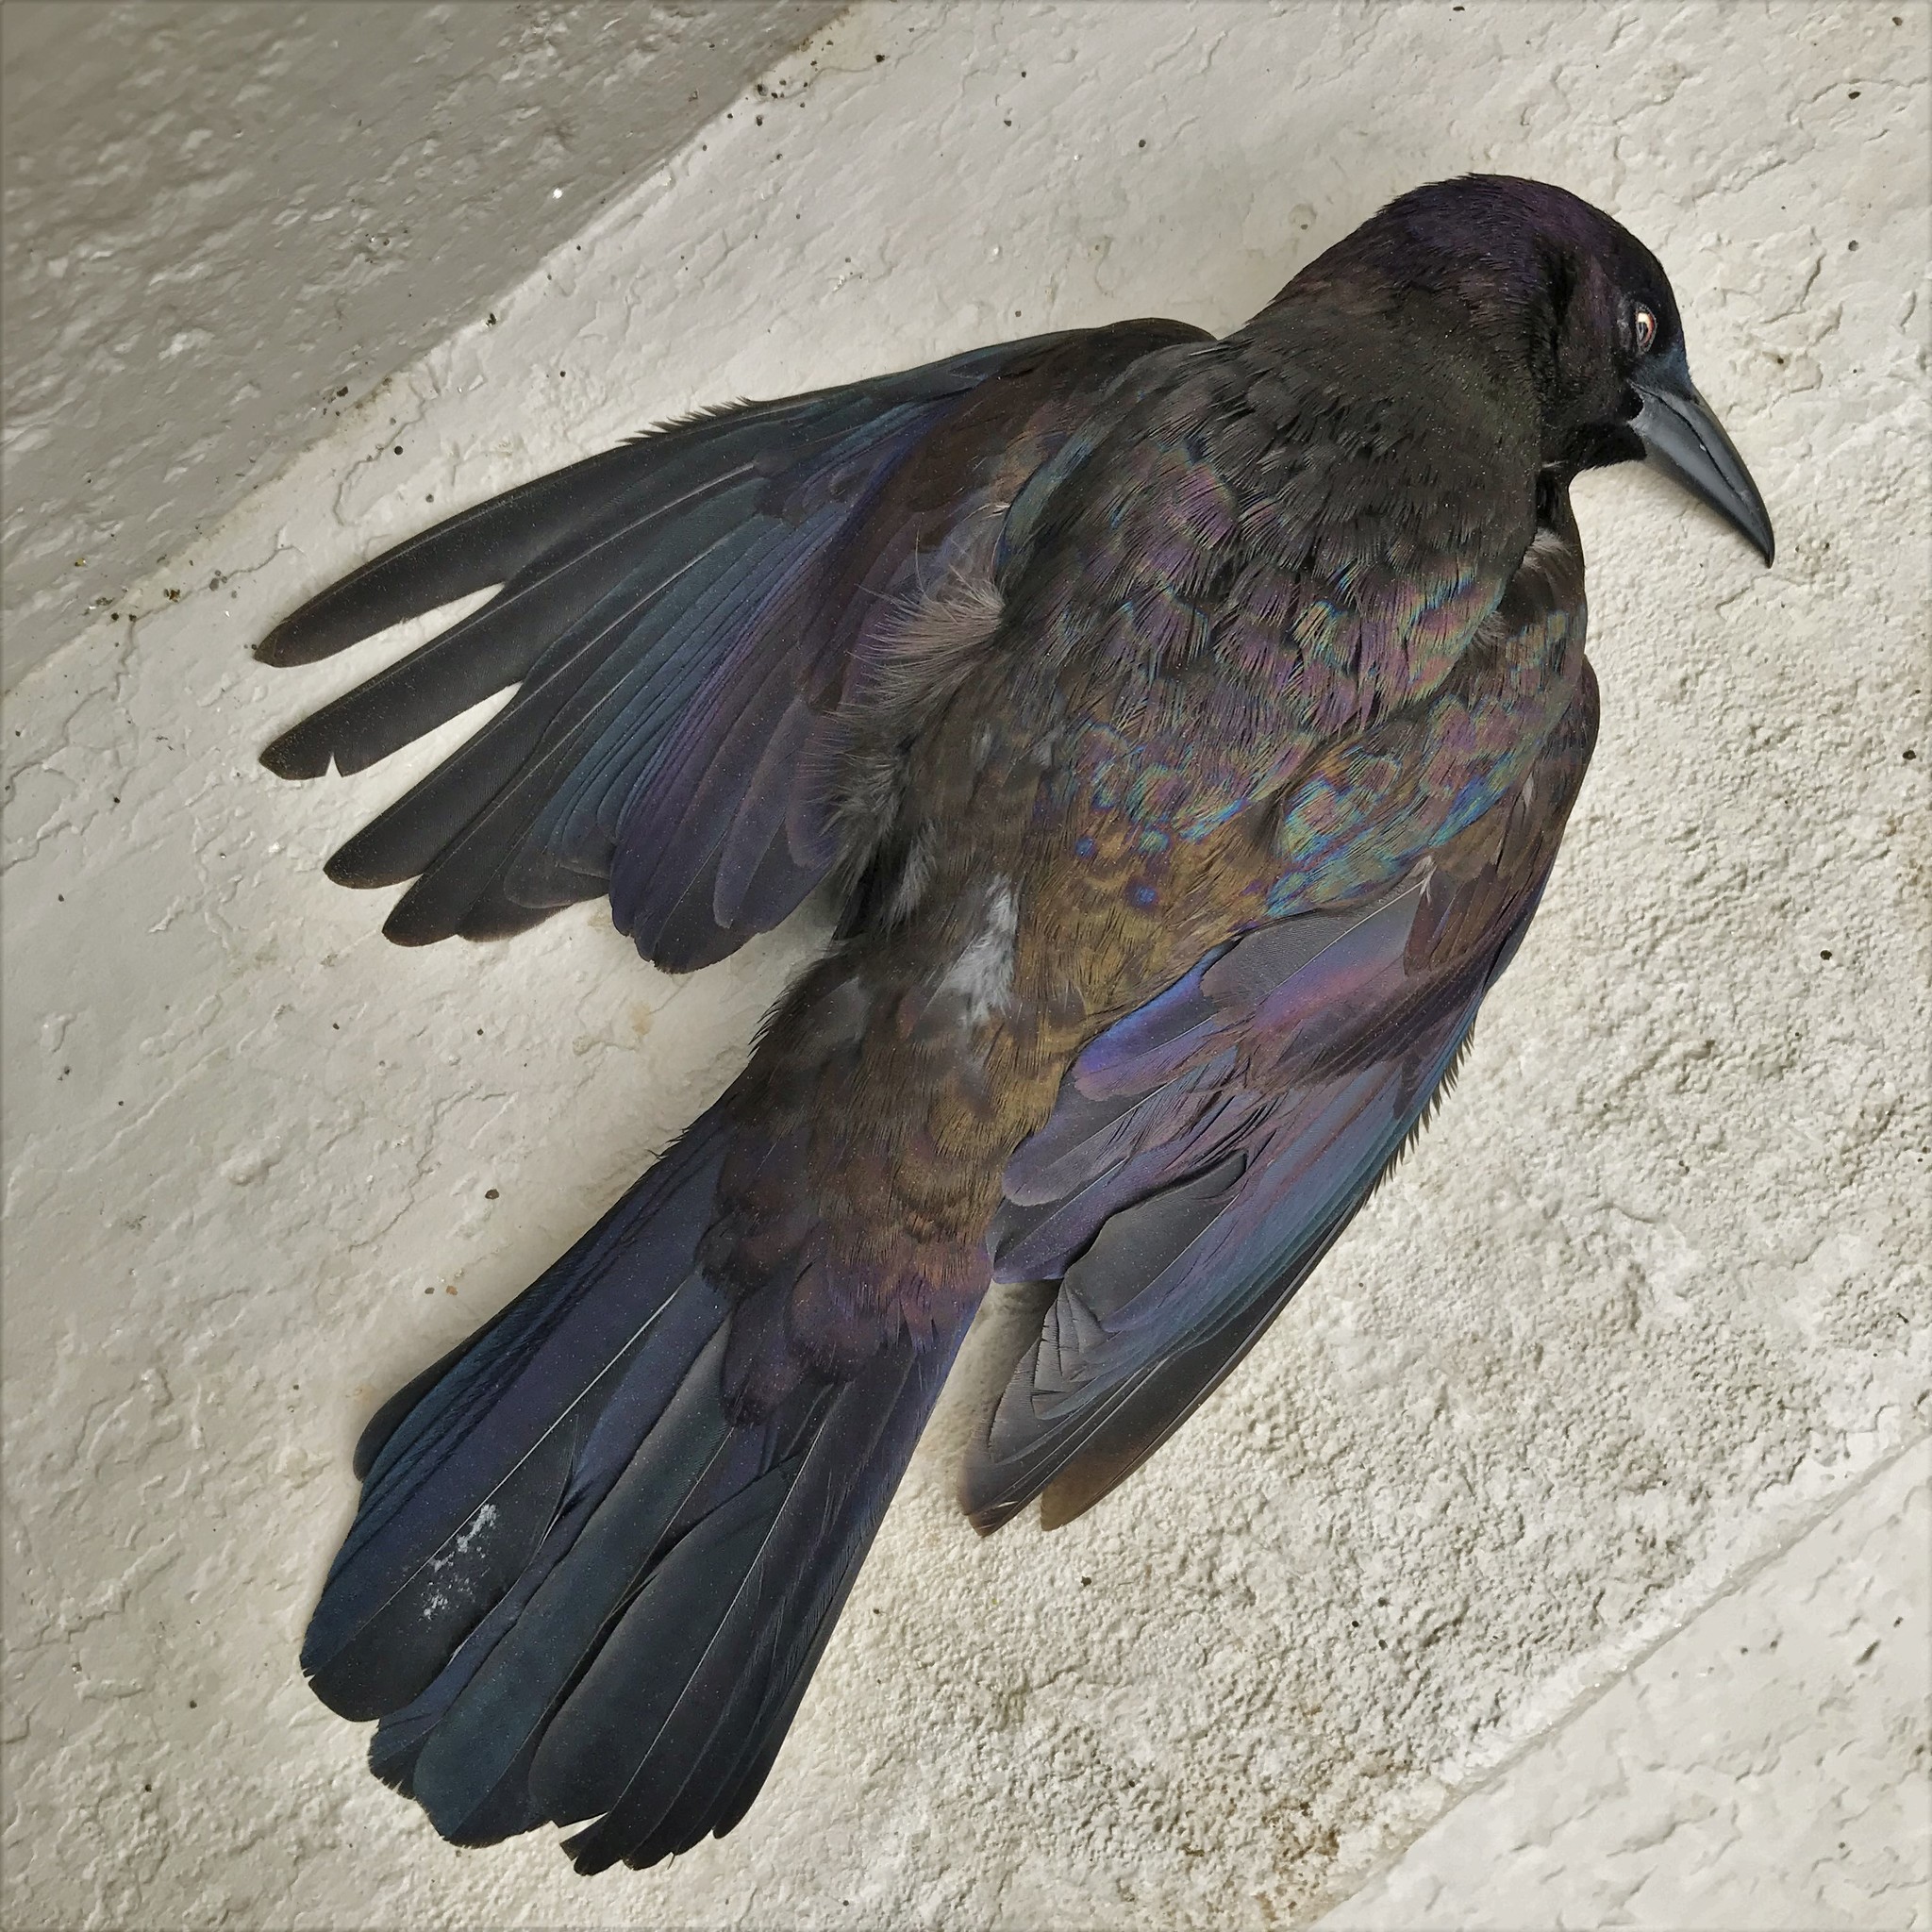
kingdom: Animalia
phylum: Chordata
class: Aves
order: Passeriformes
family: Icteridae
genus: Quiscalus
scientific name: Quiscalus quiscula
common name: Common grackle
